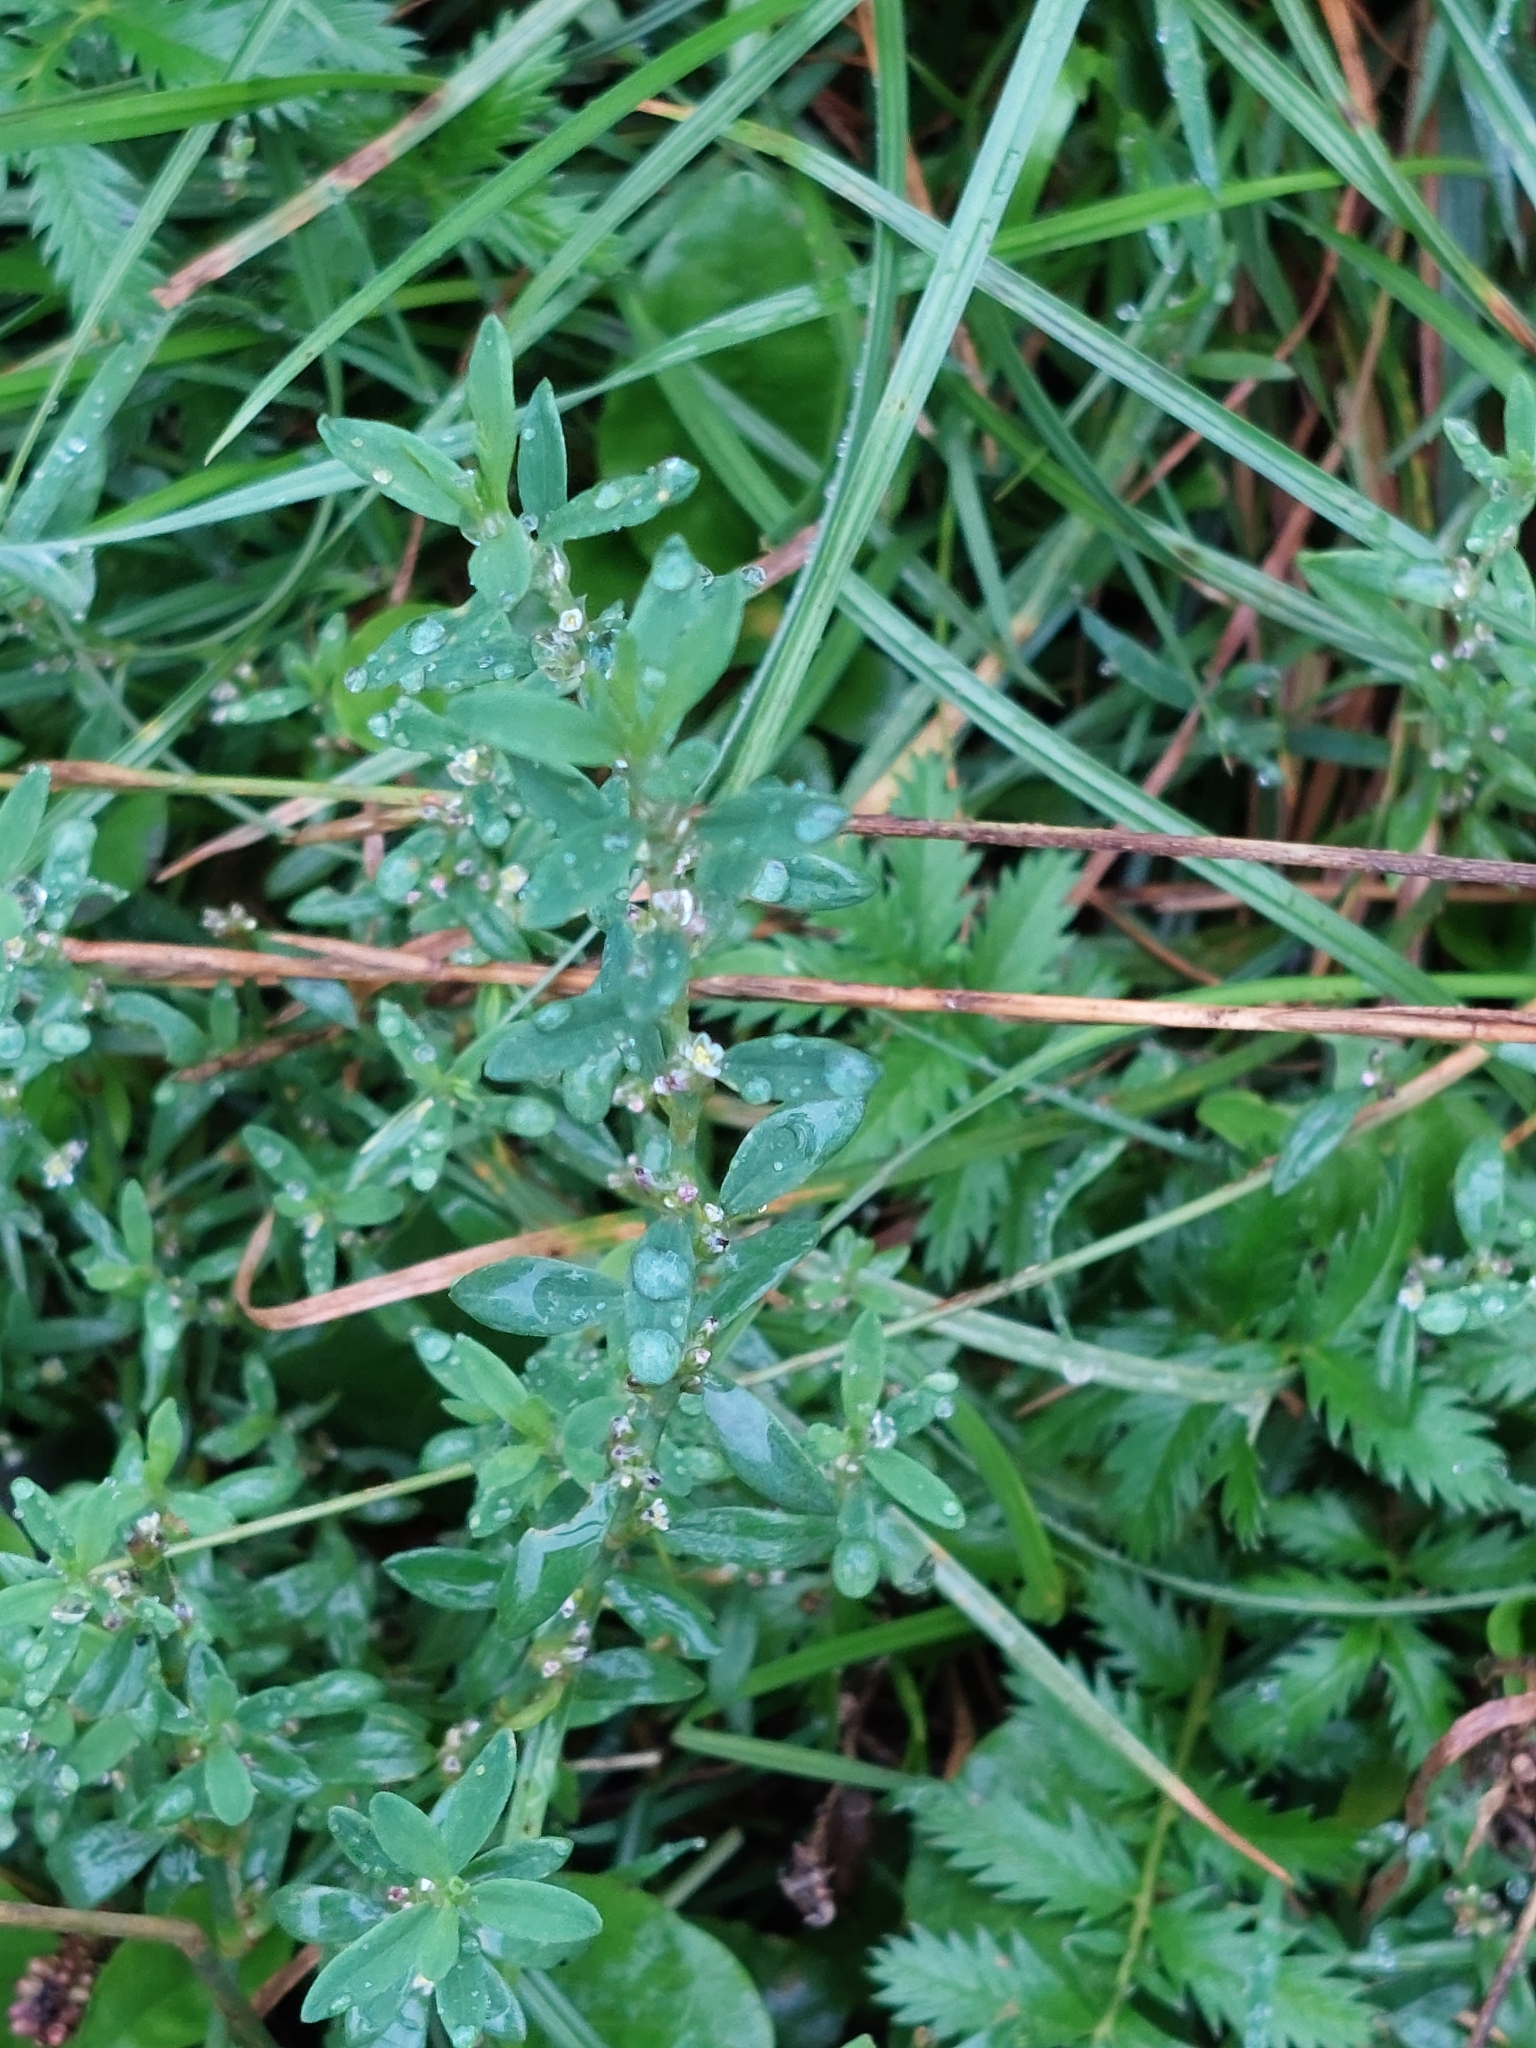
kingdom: Plantae
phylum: Tracheophyta
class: Magnoliopsida
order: Caryophyllales
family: Polygonaceae
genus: Polygonum
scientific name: Polygonum aviculare
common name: Prostrate knotweed
